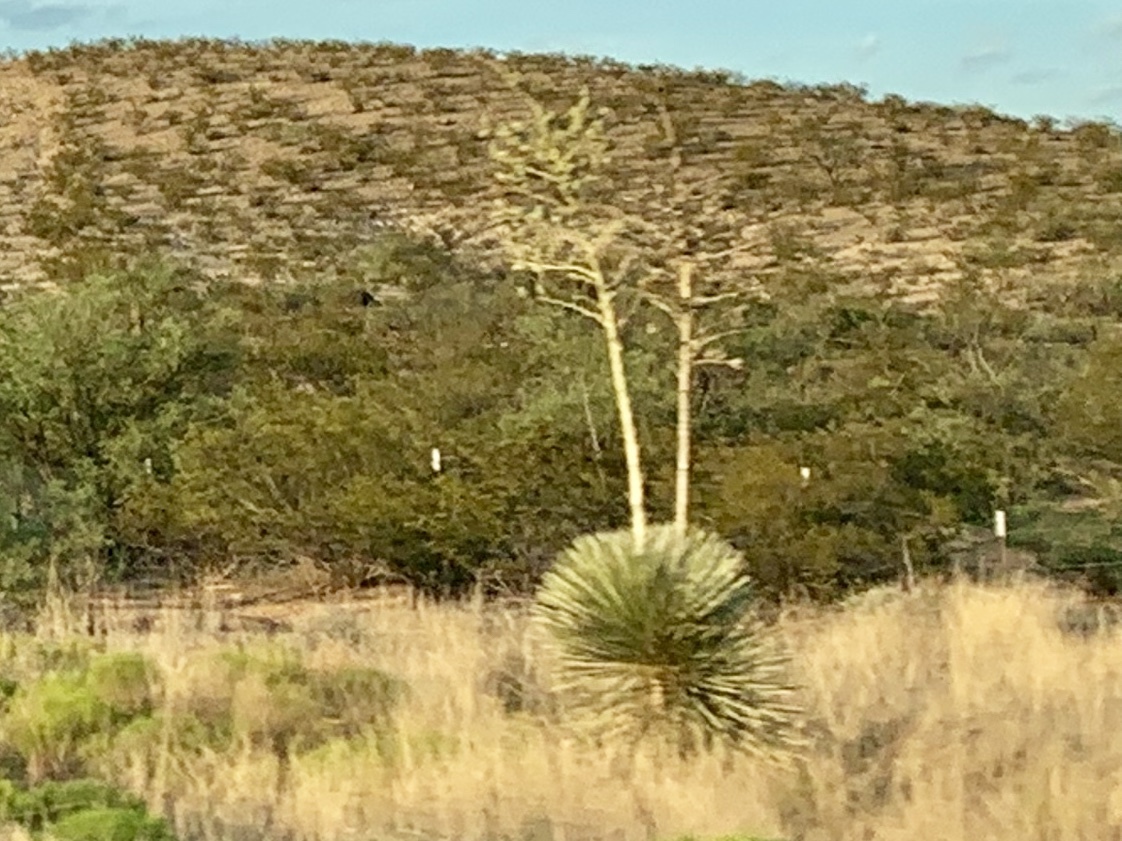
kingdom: Plantae
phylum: Tracheophyta
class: Liliopsida
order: Asparagales
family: Asparagaceae
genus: Yucca
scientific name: Yucca elata
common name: Palmella
